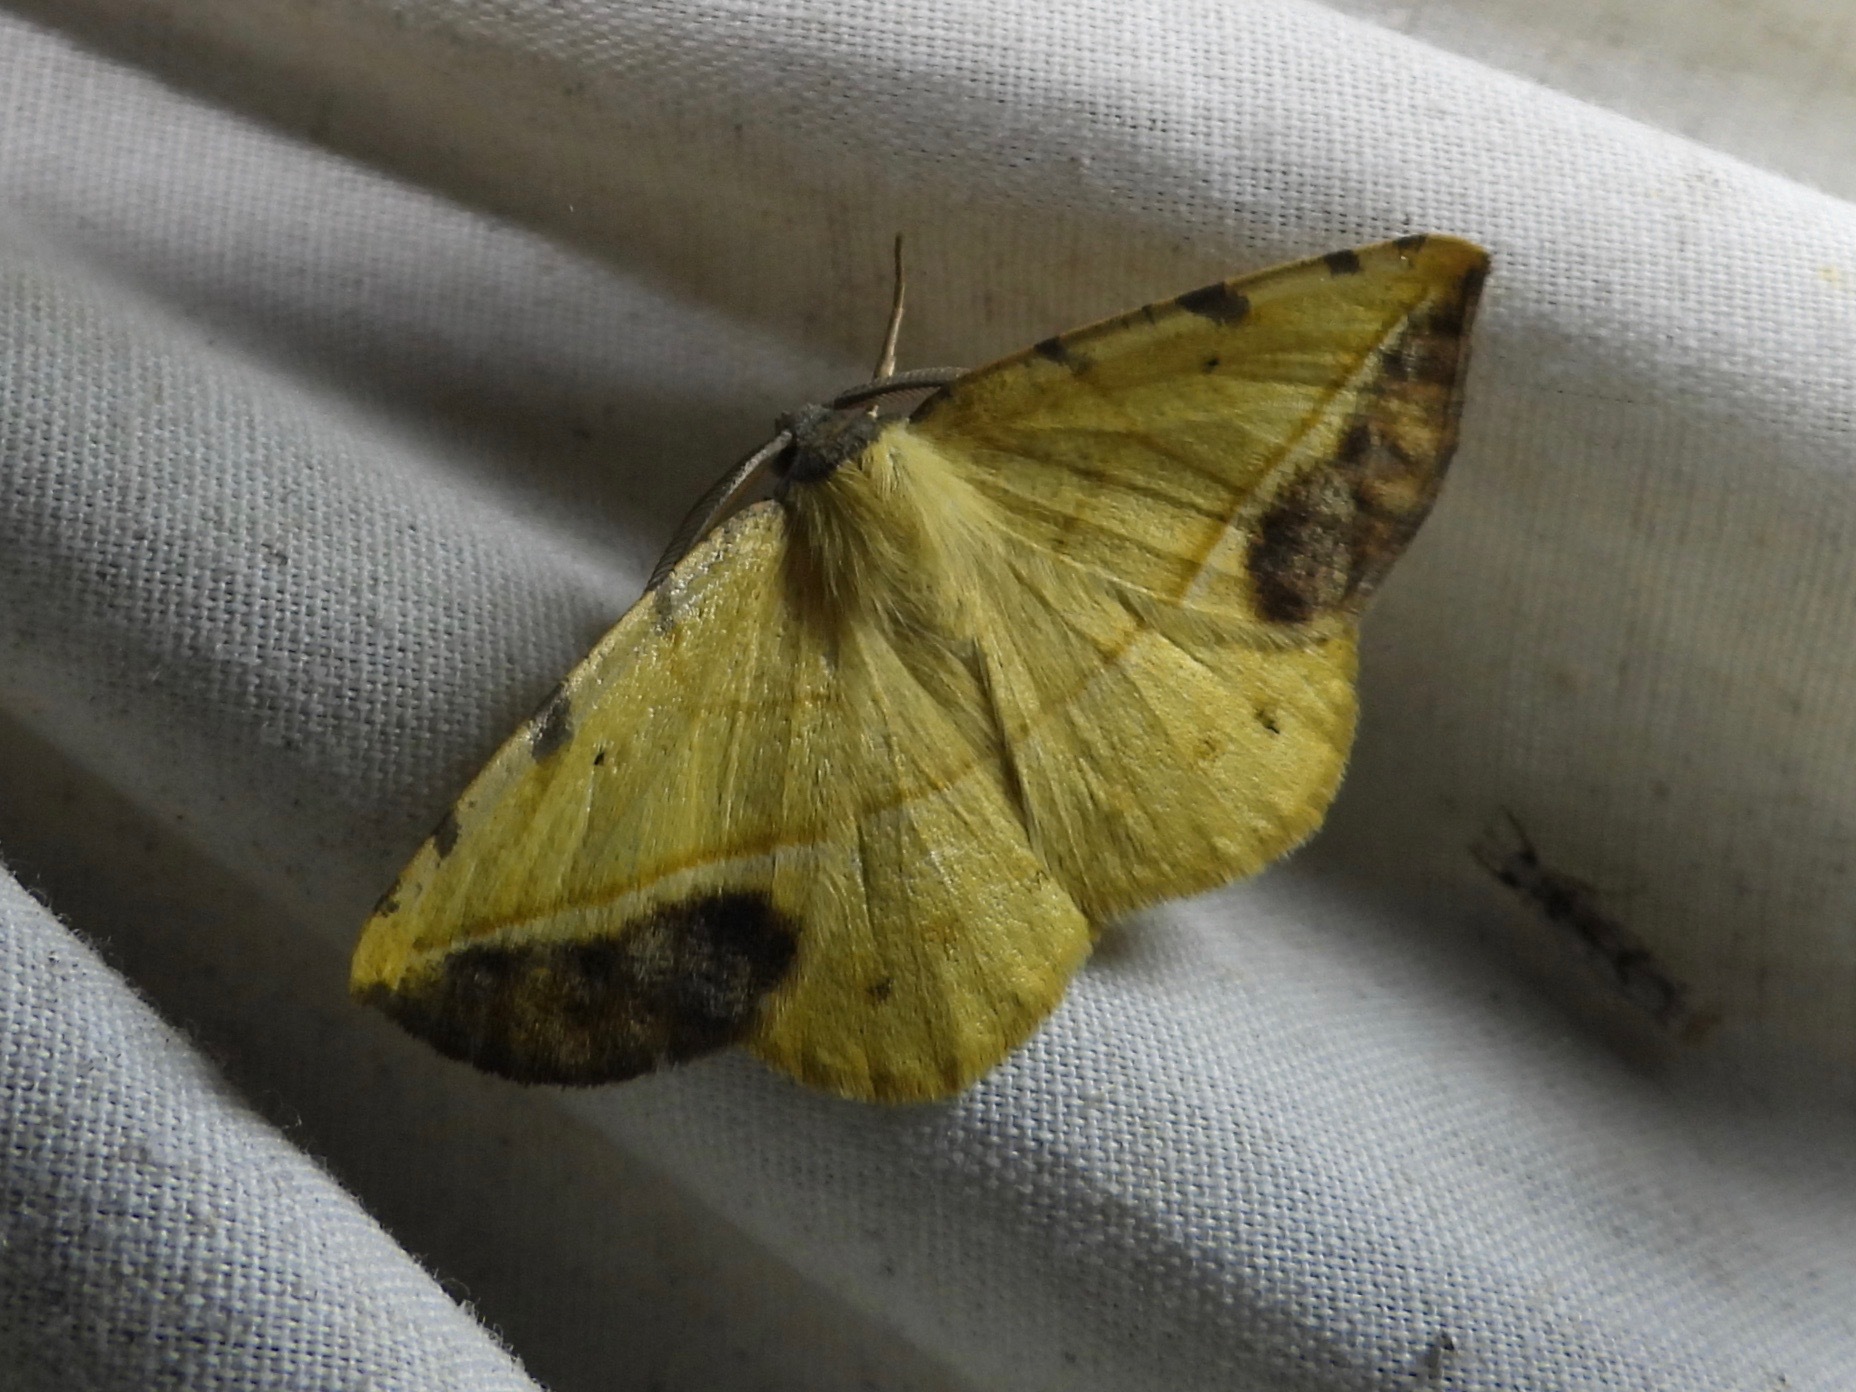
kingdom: Animalia
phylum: Arthropoda
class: Insecta
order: Lepidoptera
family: Geometridae
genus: Eusarca
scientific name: Eusarca asteria
